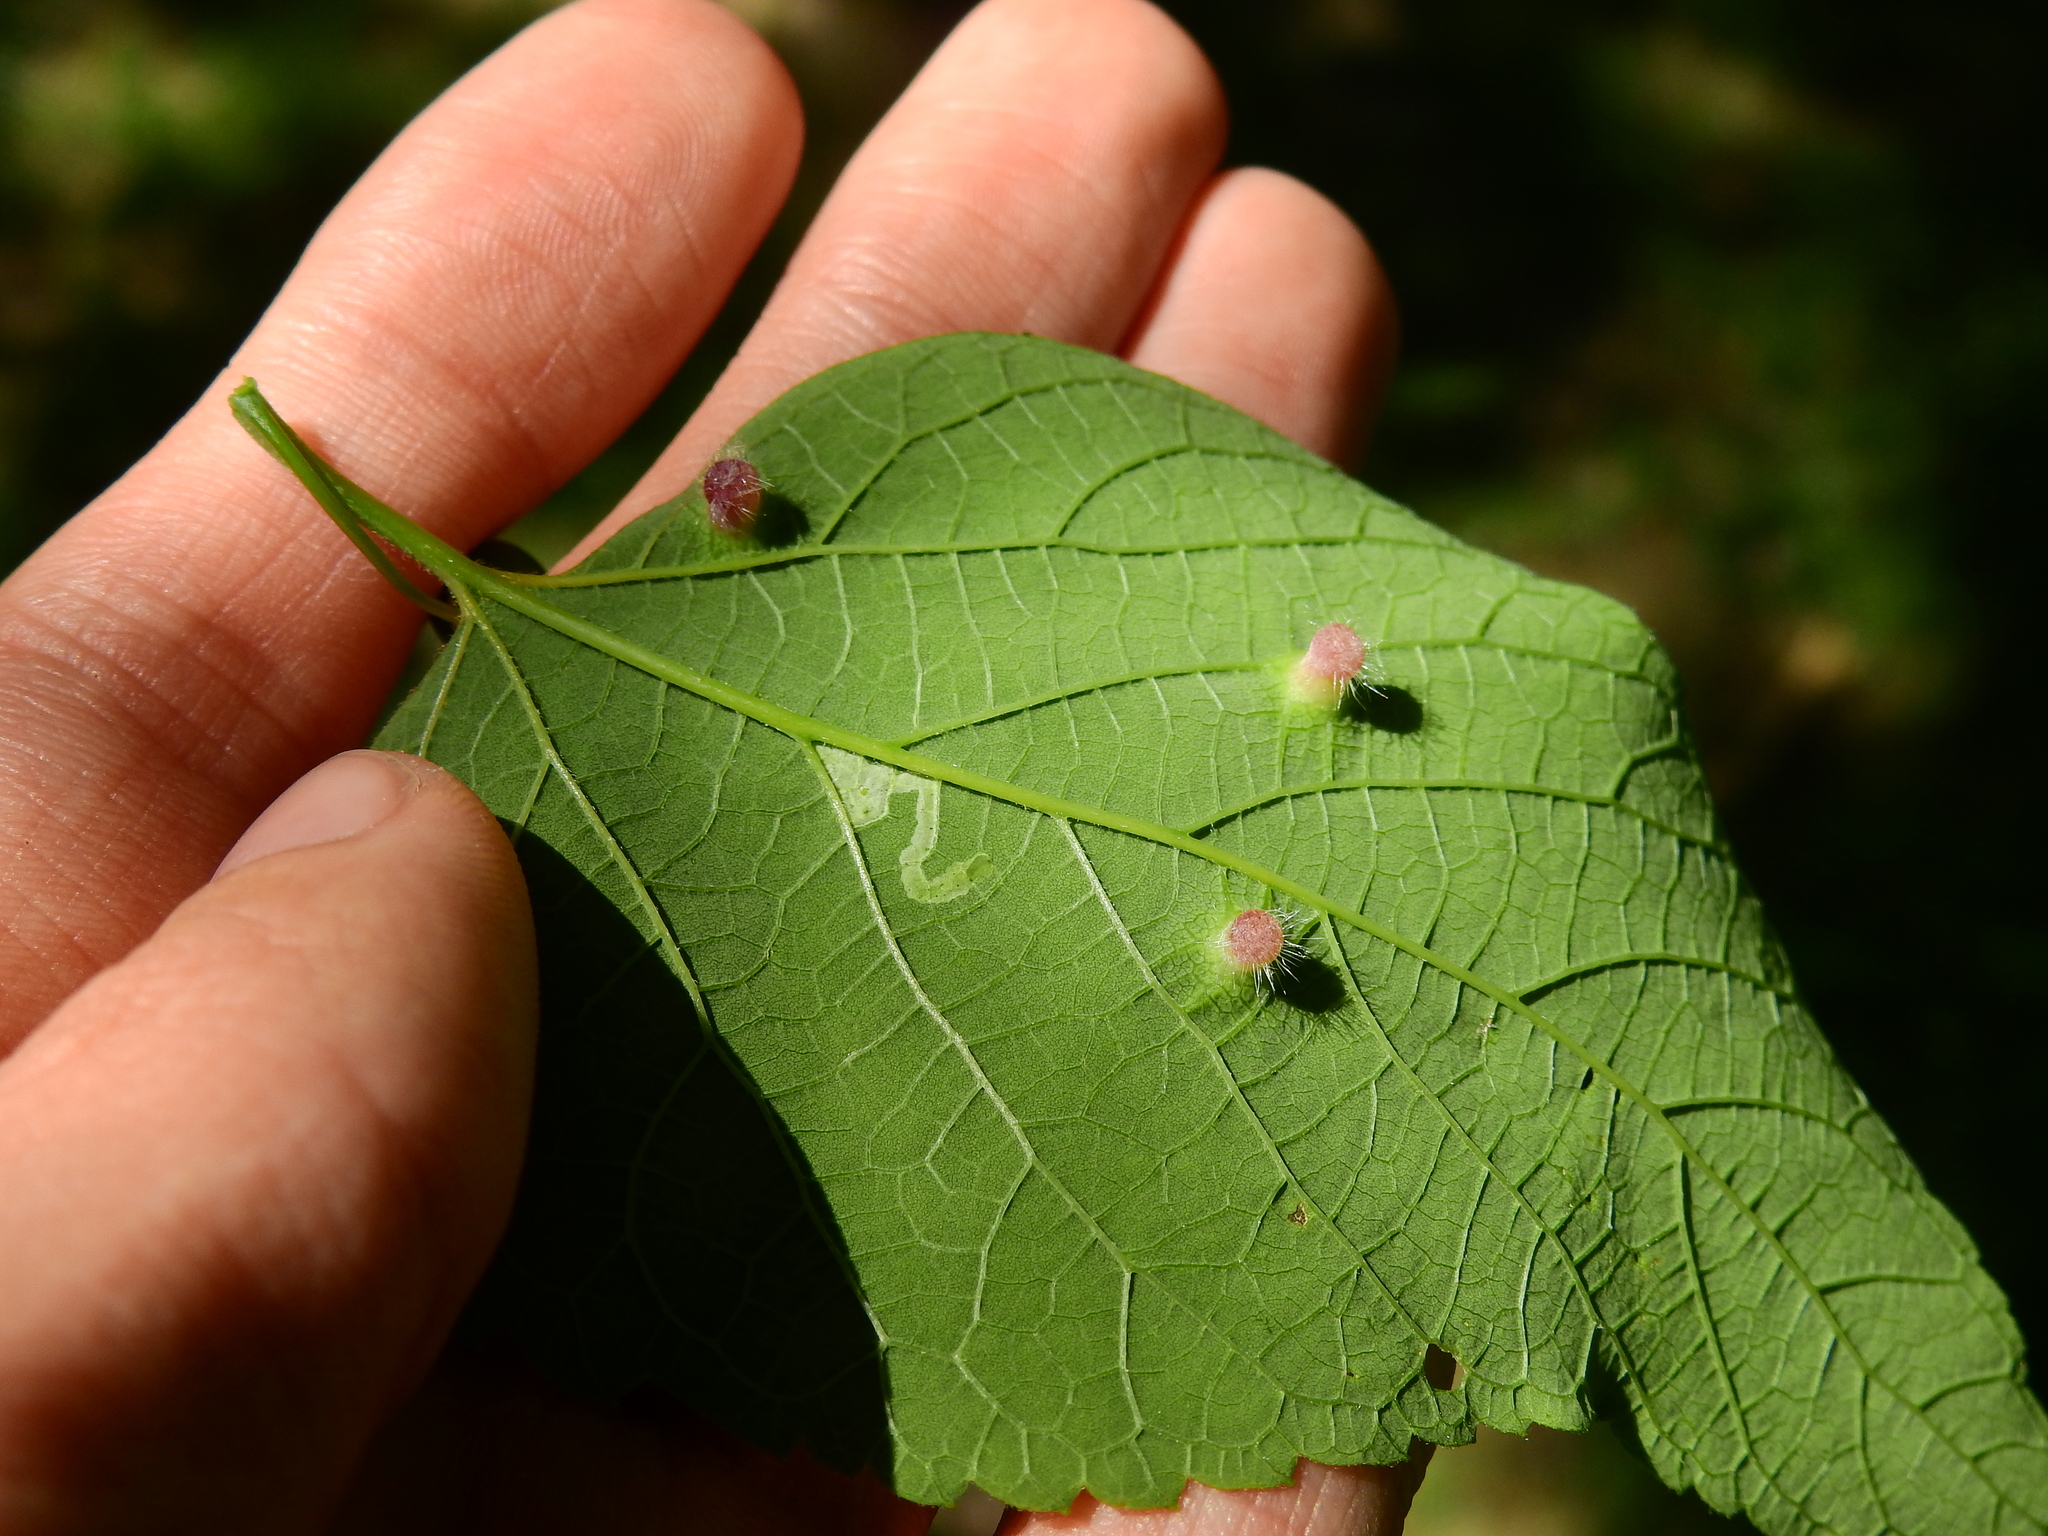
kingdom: Animalia
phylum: Arthropoda
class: Insecta
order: Hemiptera
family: Aphalaridae
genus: Pachypsylla
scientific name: Pachypsylla celtidismamma
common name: Hackberry nipplegall psyllid
